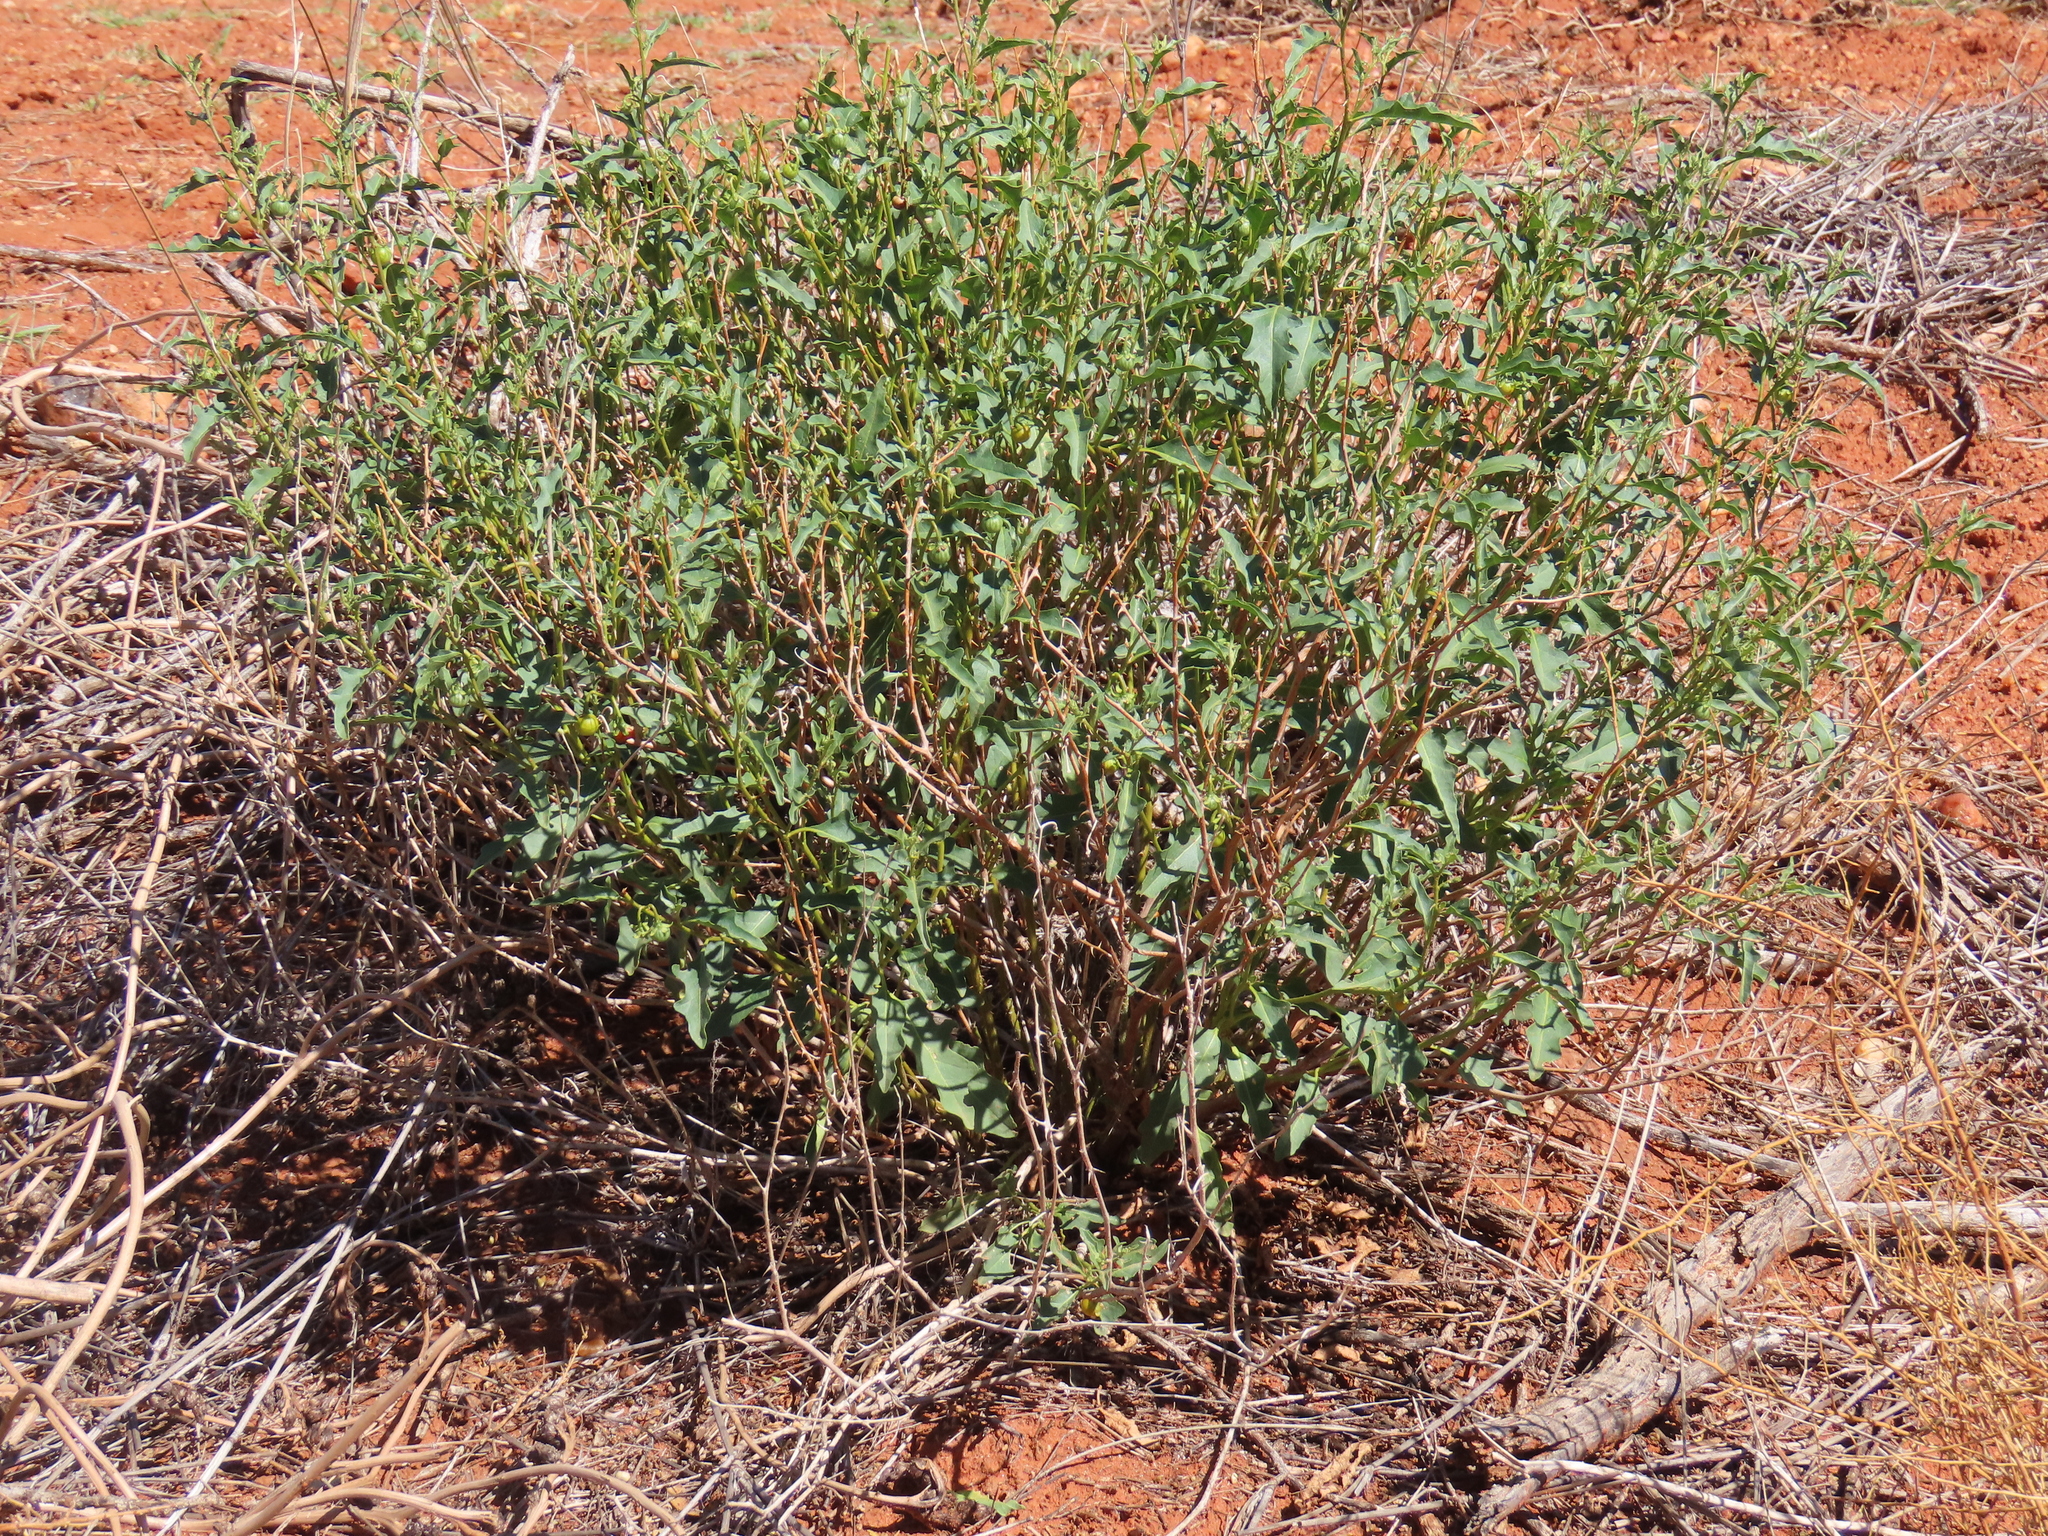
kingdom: Plantae
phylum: Tracheophyta
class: Magnoliopsida
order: Solanales
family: Solanaceae
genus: Solanum
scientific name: Solanum capense
